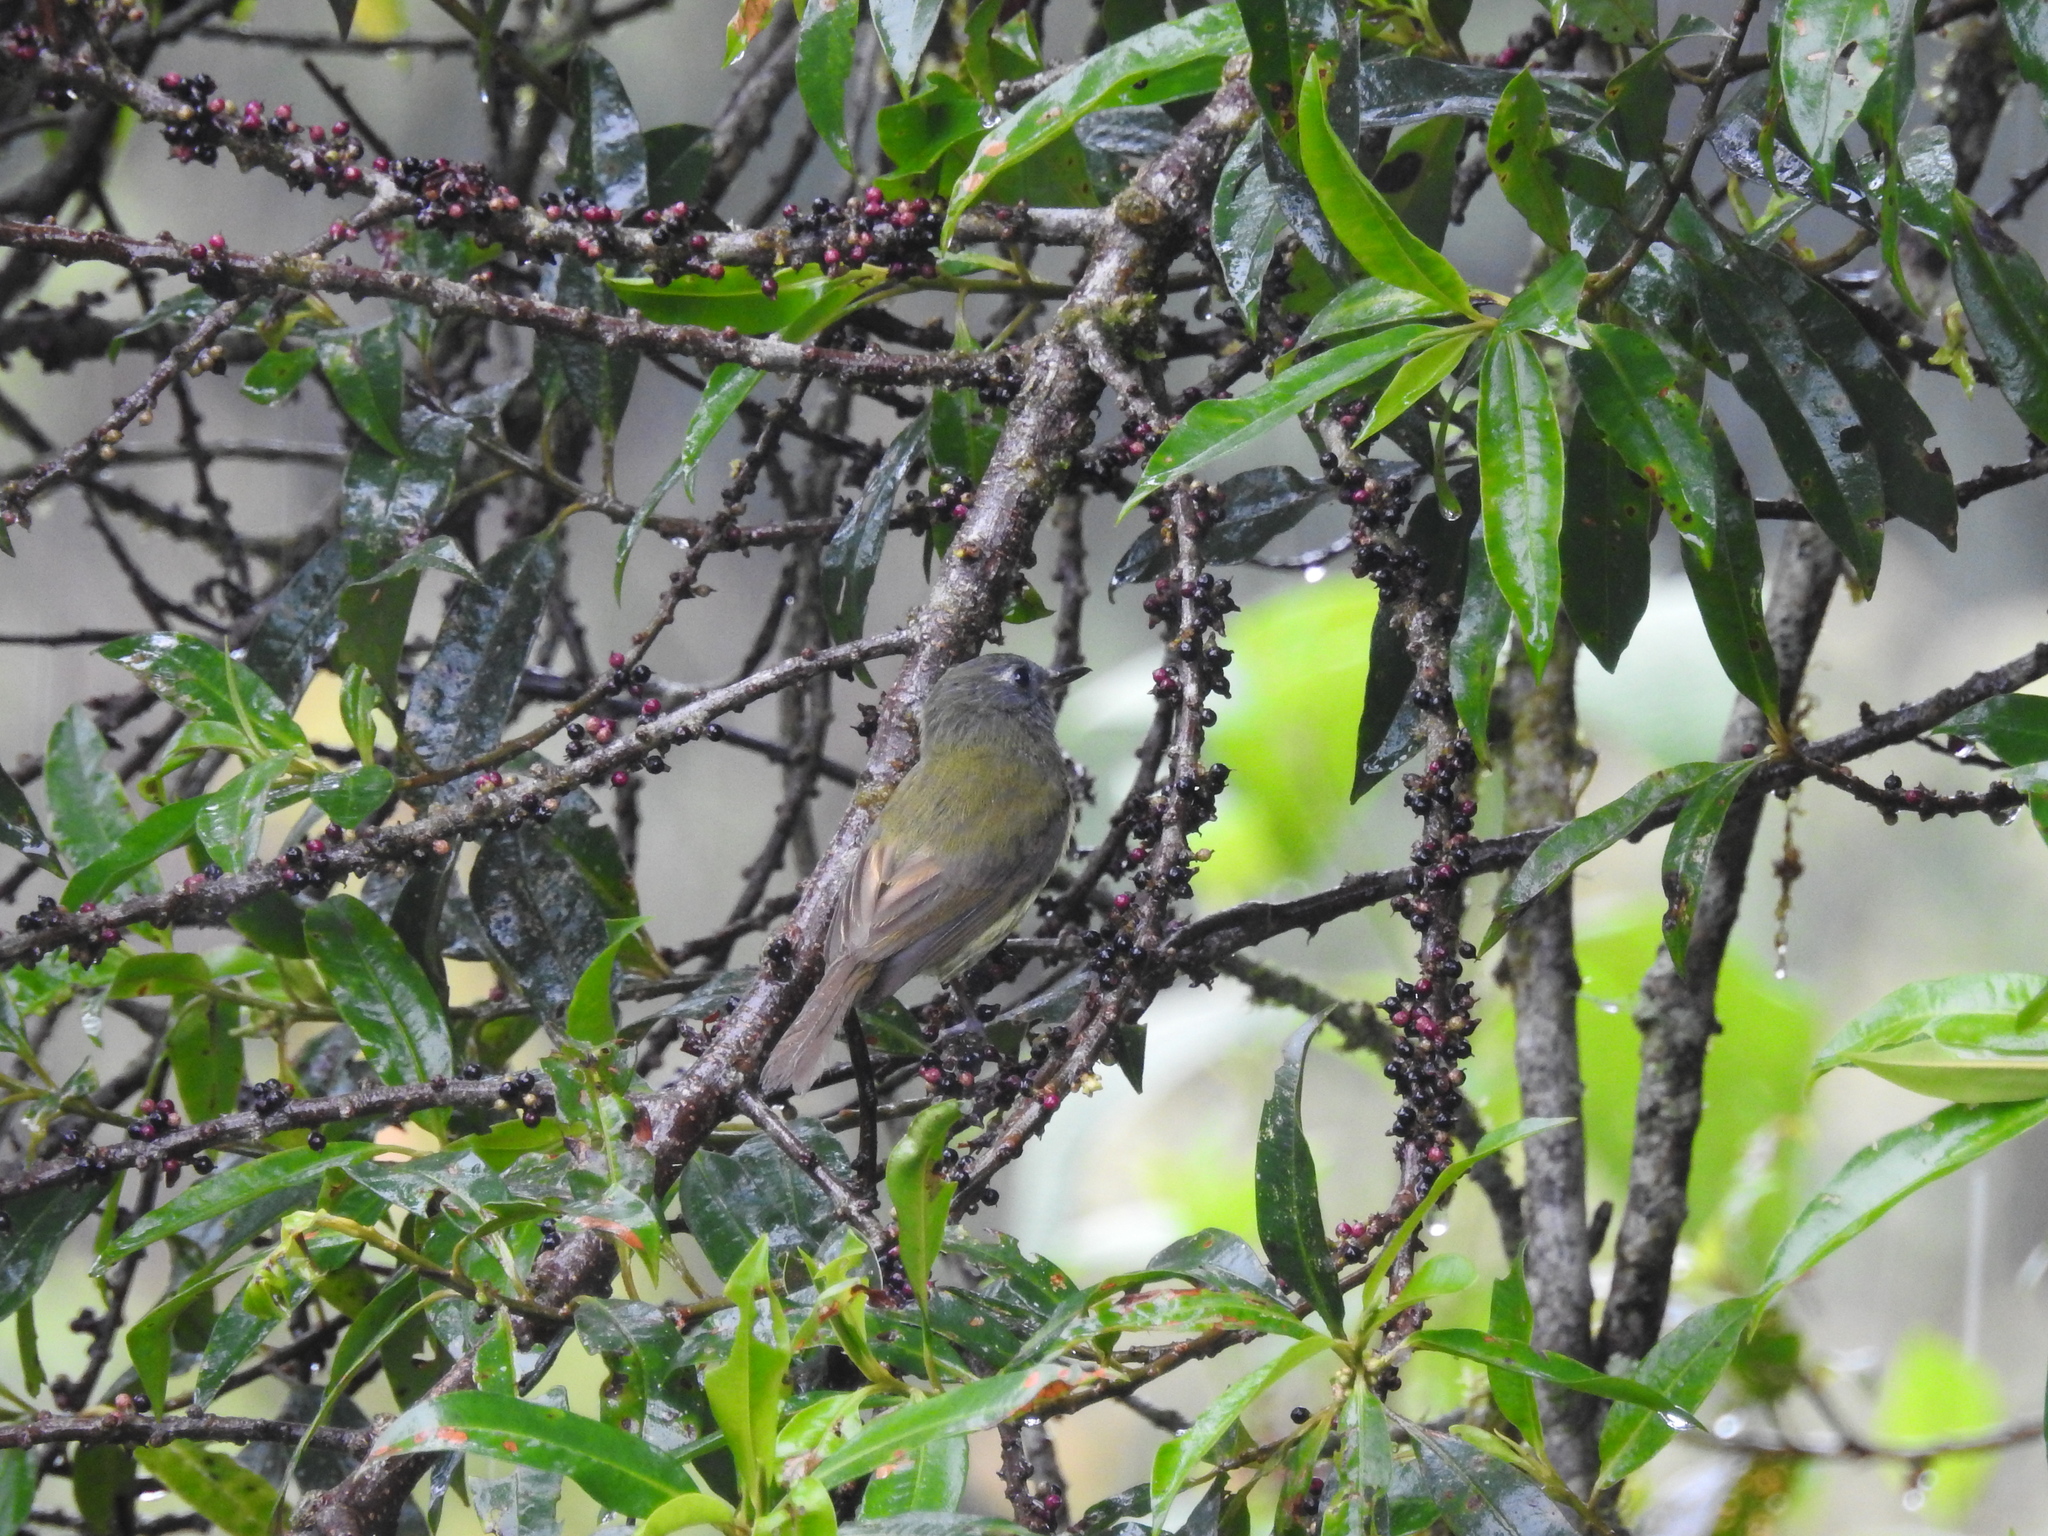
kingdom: Animalia
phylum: Chordata
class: Aves
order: Passeriformes
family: Tyrannidae
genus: Mionectes
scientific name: Mionectes striaticollis
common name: Streak-necked flycatcher
